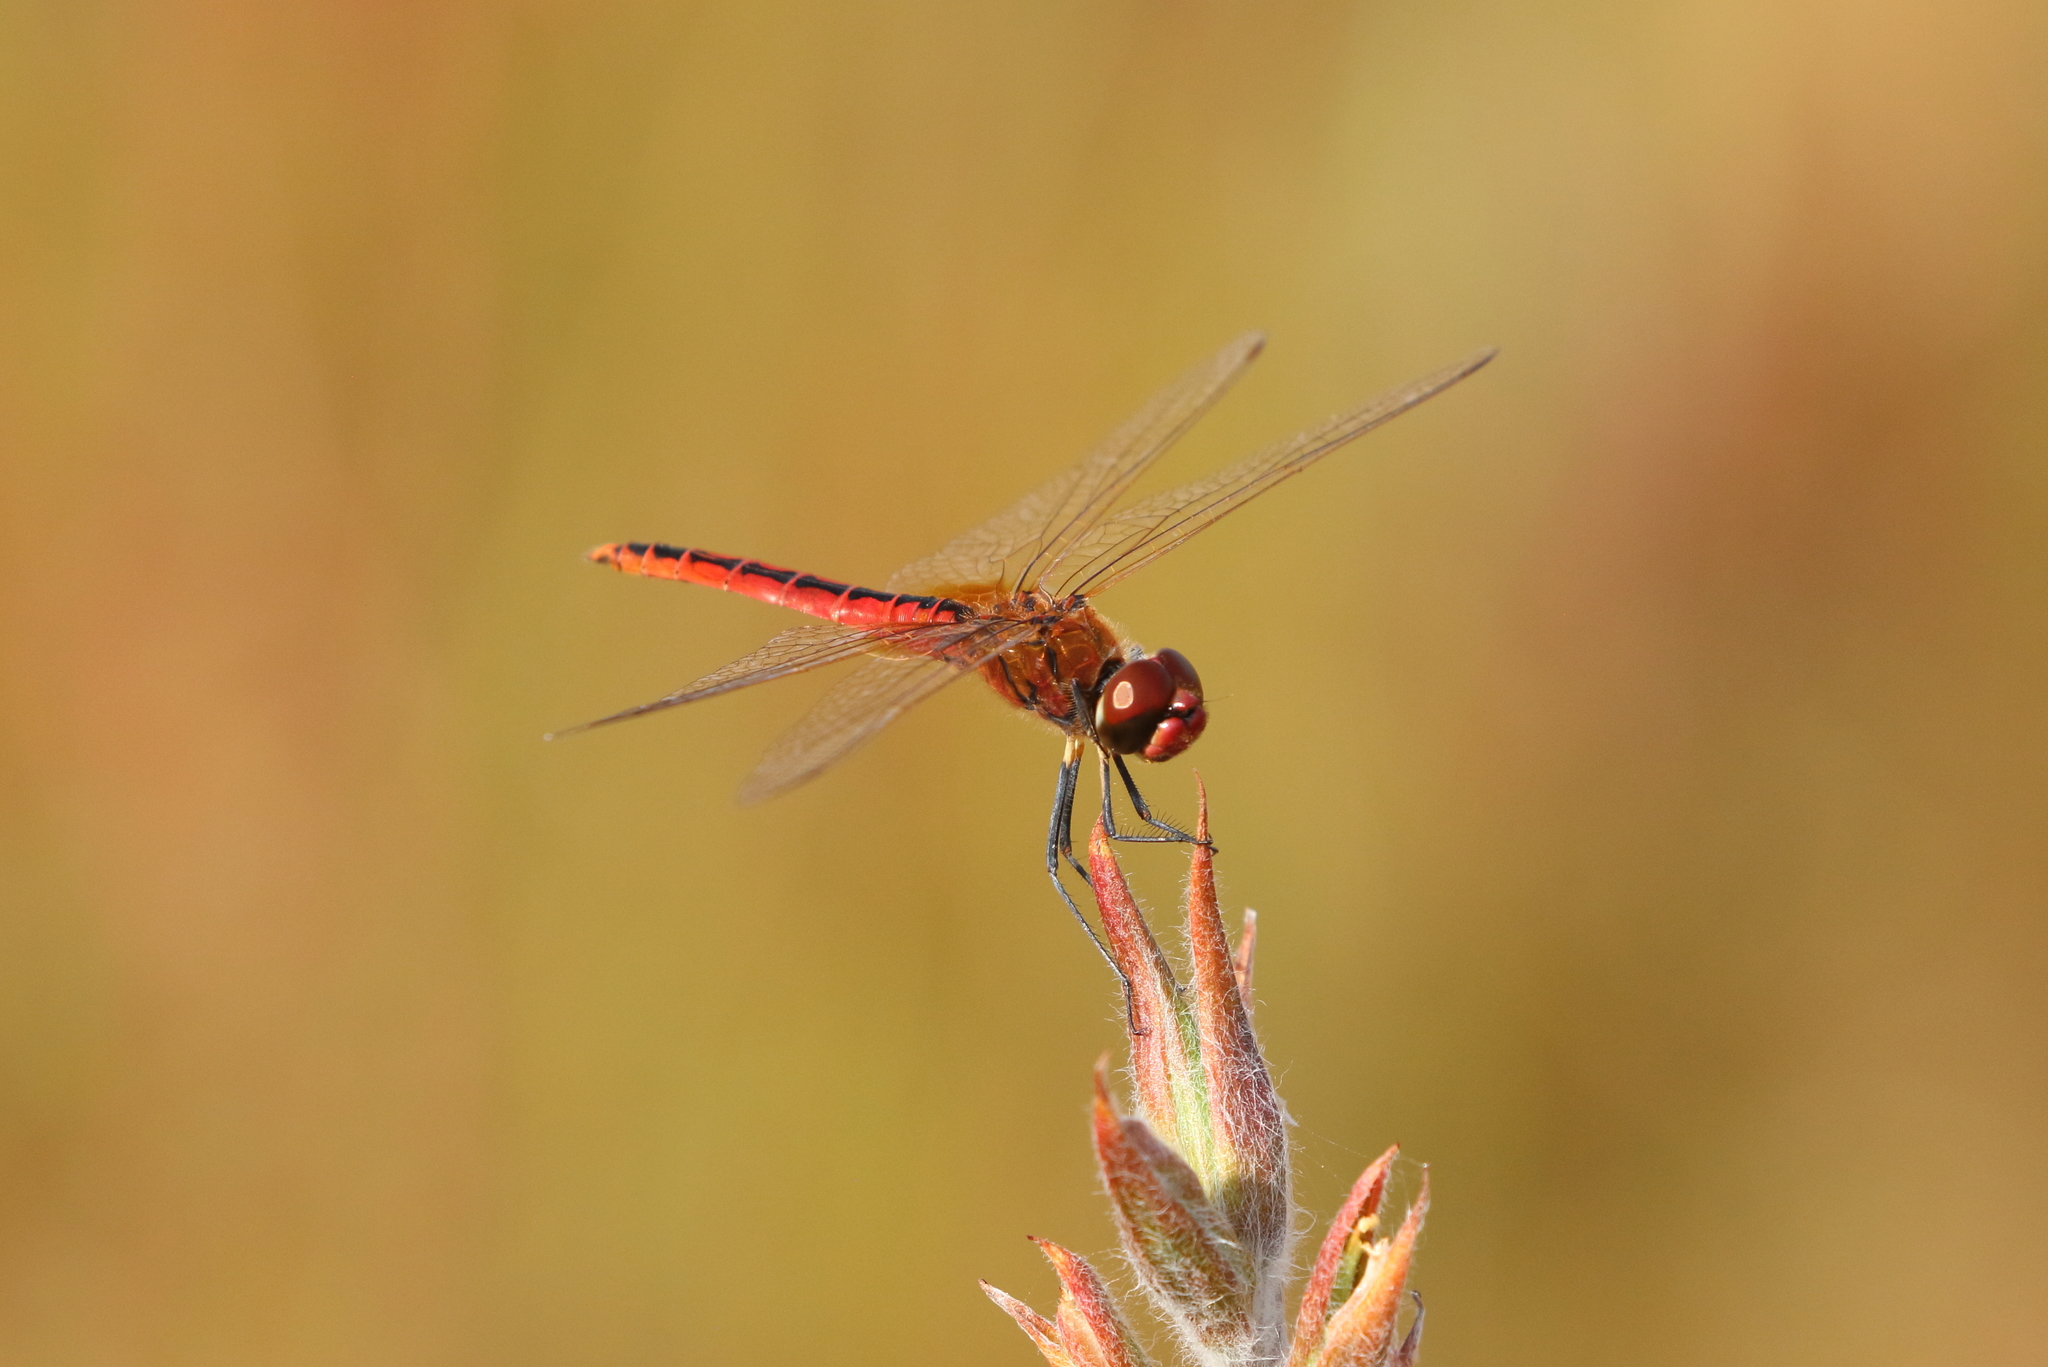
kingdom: Animalia
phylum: Arthropoda
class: Insecta
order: Odonata
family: Libellulidae
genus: Macrodiplax
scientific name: Macrodiplax cora
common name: Coastal glider
